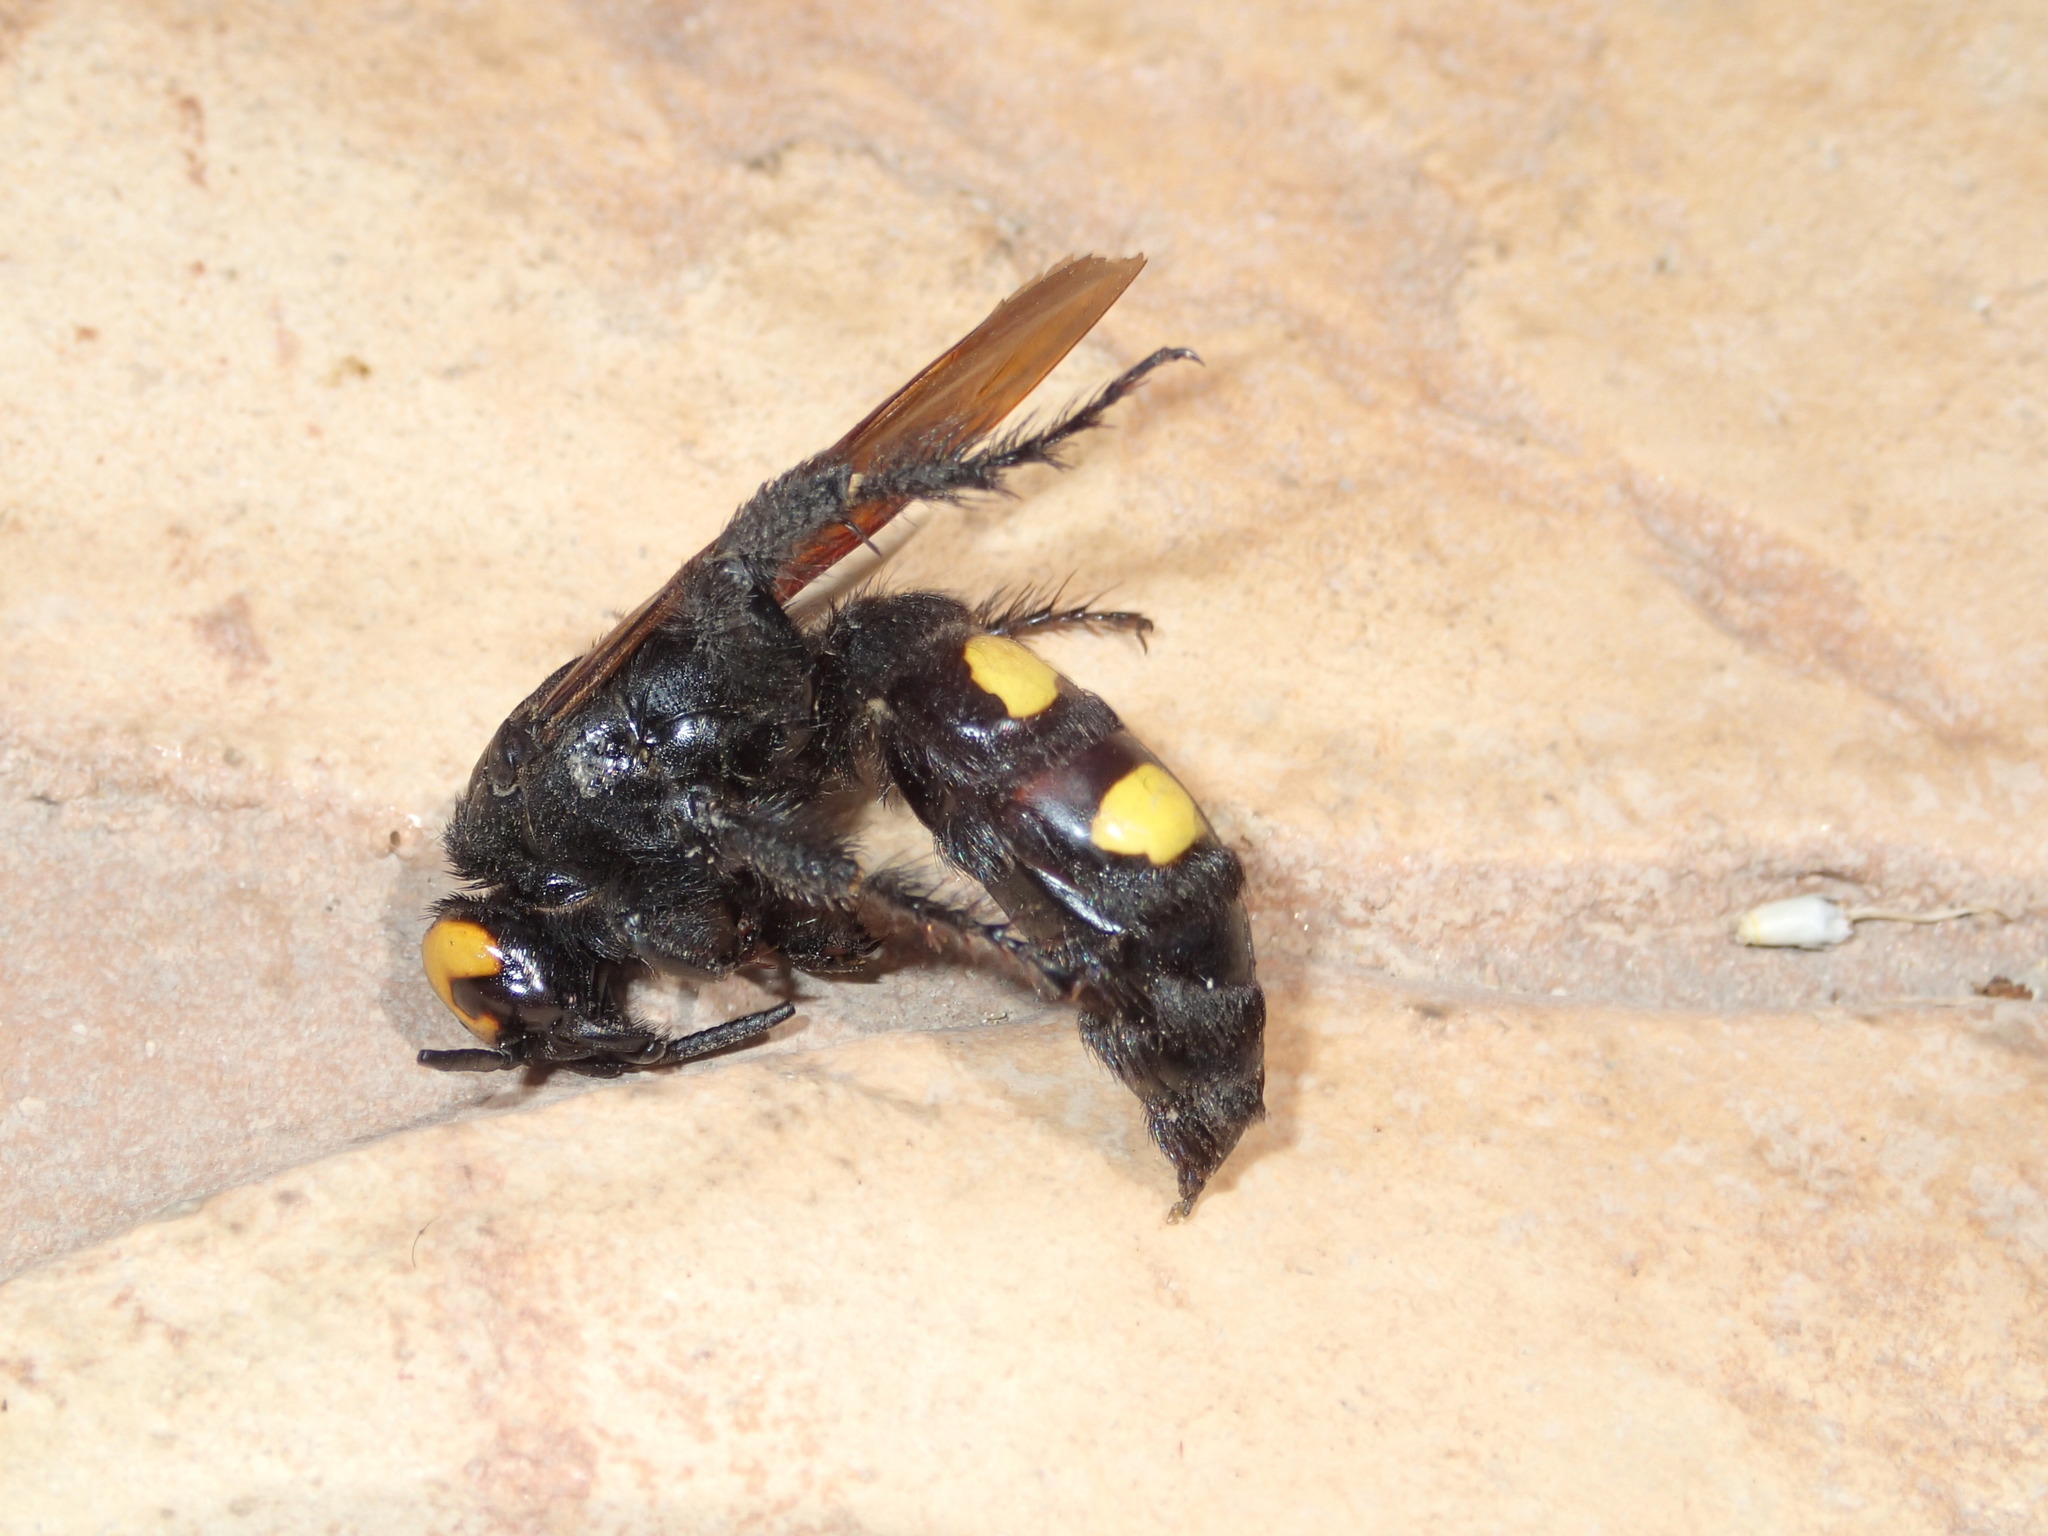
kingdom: Animalia
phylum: Arthropoda
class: Insecta
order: Hymenoptera
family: Scoliidae
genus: Megascolia
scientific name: Megascolia maculata
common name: Mammoth wasp
